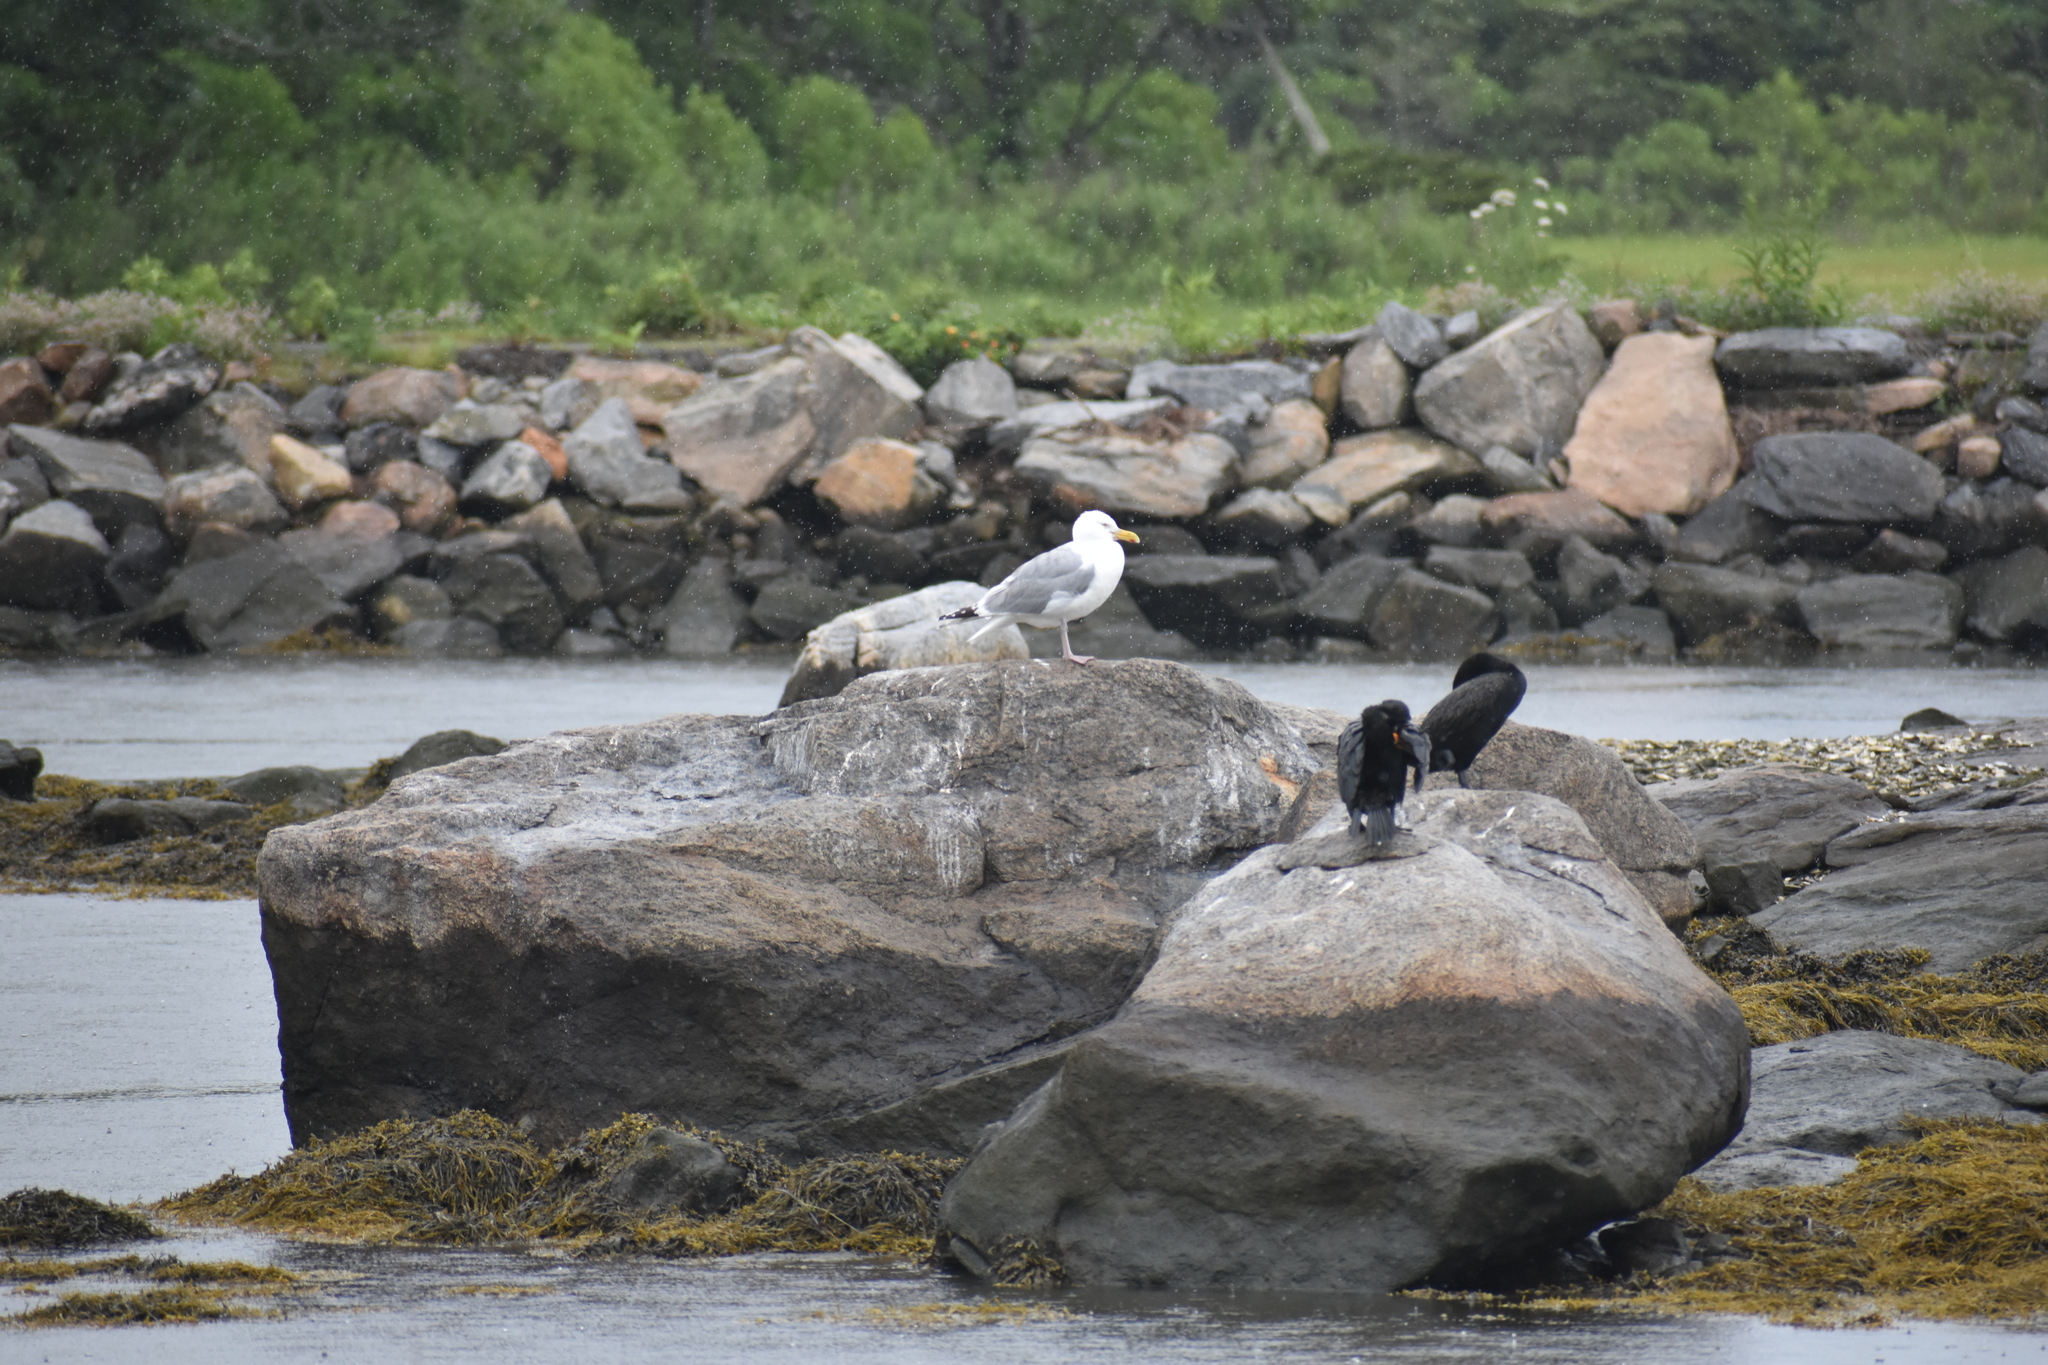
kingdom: Animalia
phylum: Chordata
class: Aves
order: Charadriiformes
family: Laridae
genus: Larus
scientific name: Larus argentatus
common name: Herring gull
